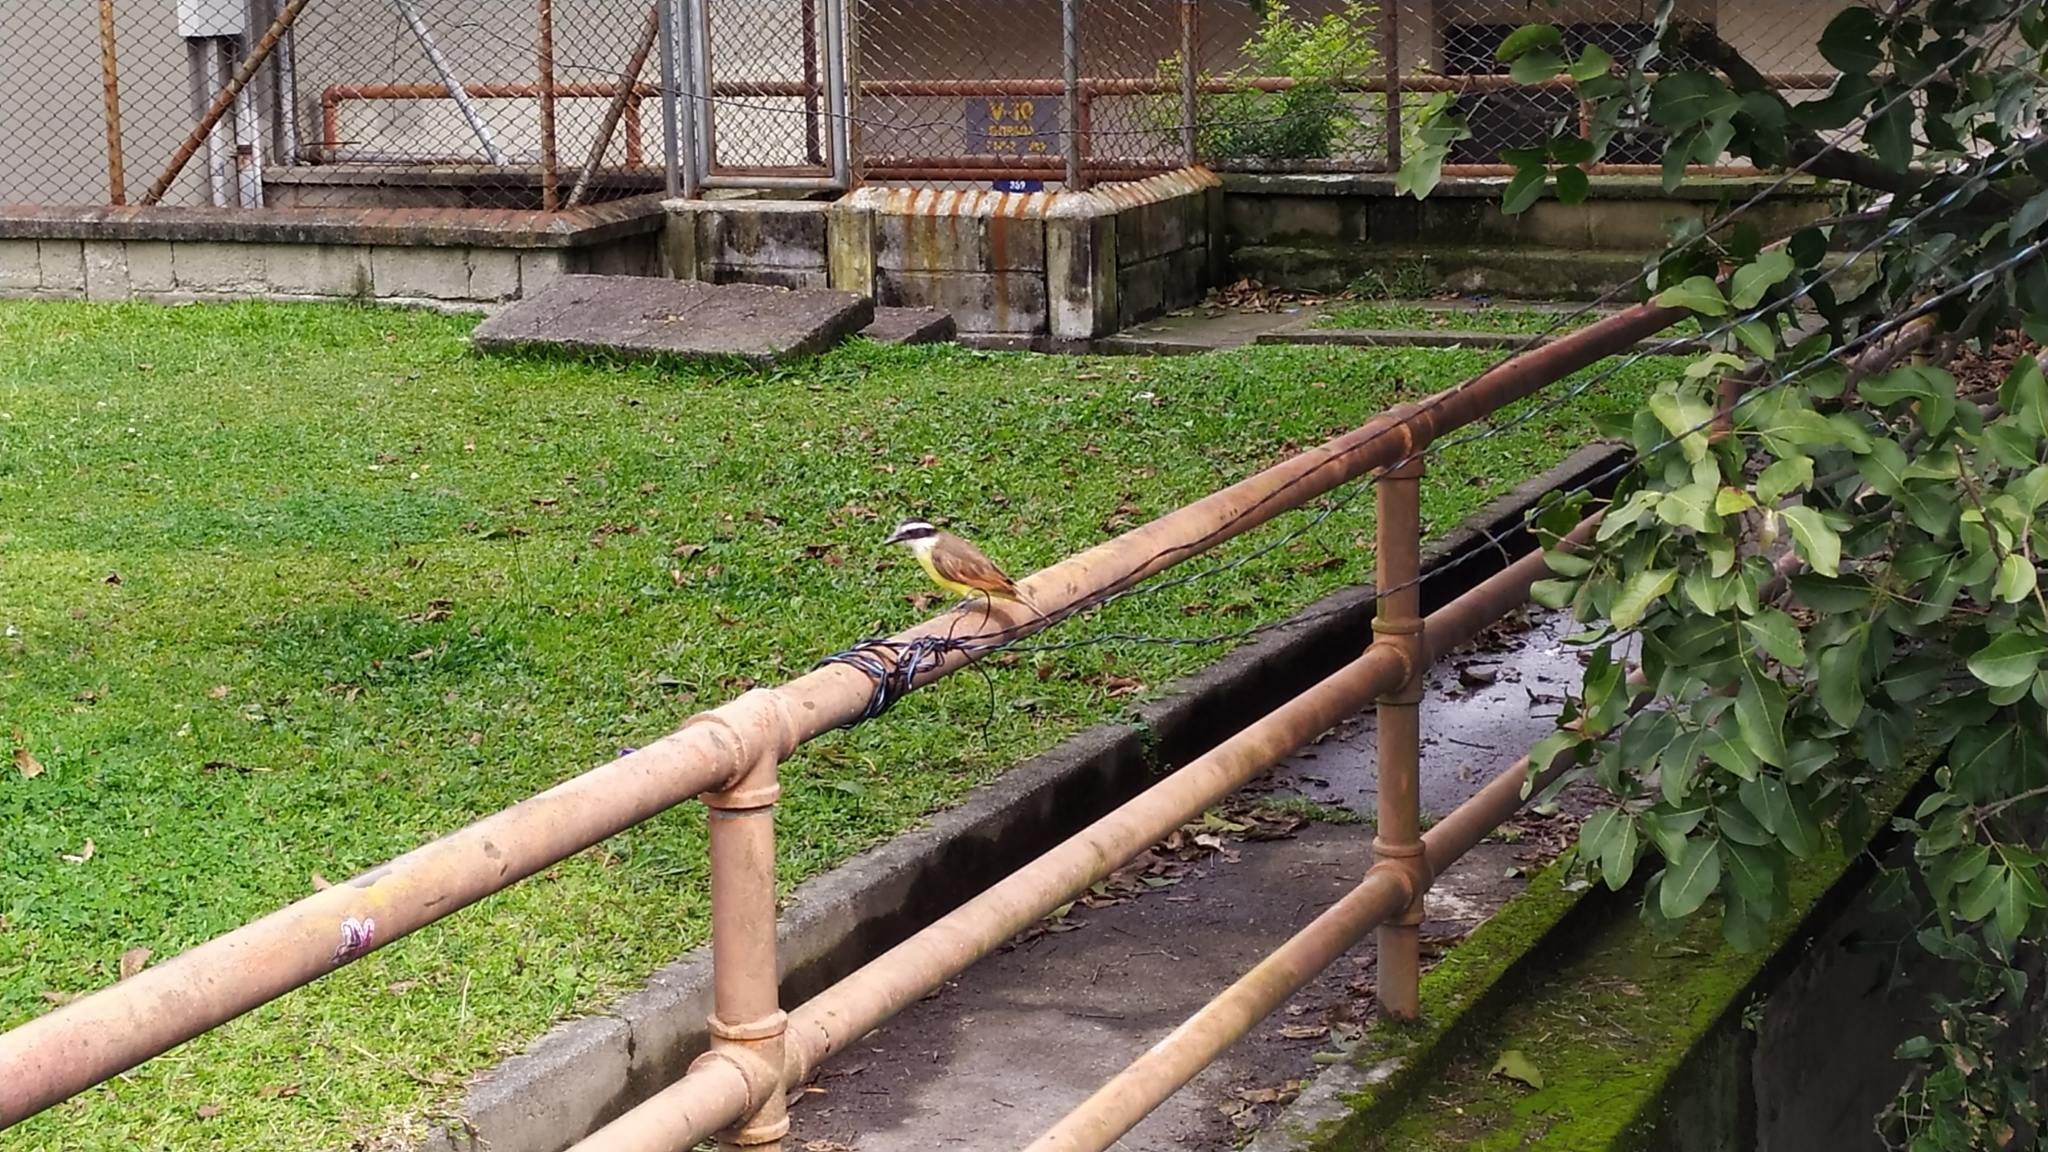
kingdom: Animalia
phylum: Chordata
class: Aves
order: Passeriformes
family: Tyrannidae
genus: Pitangus
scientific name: Pitangus sulphuratus
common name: Great kiskadee
